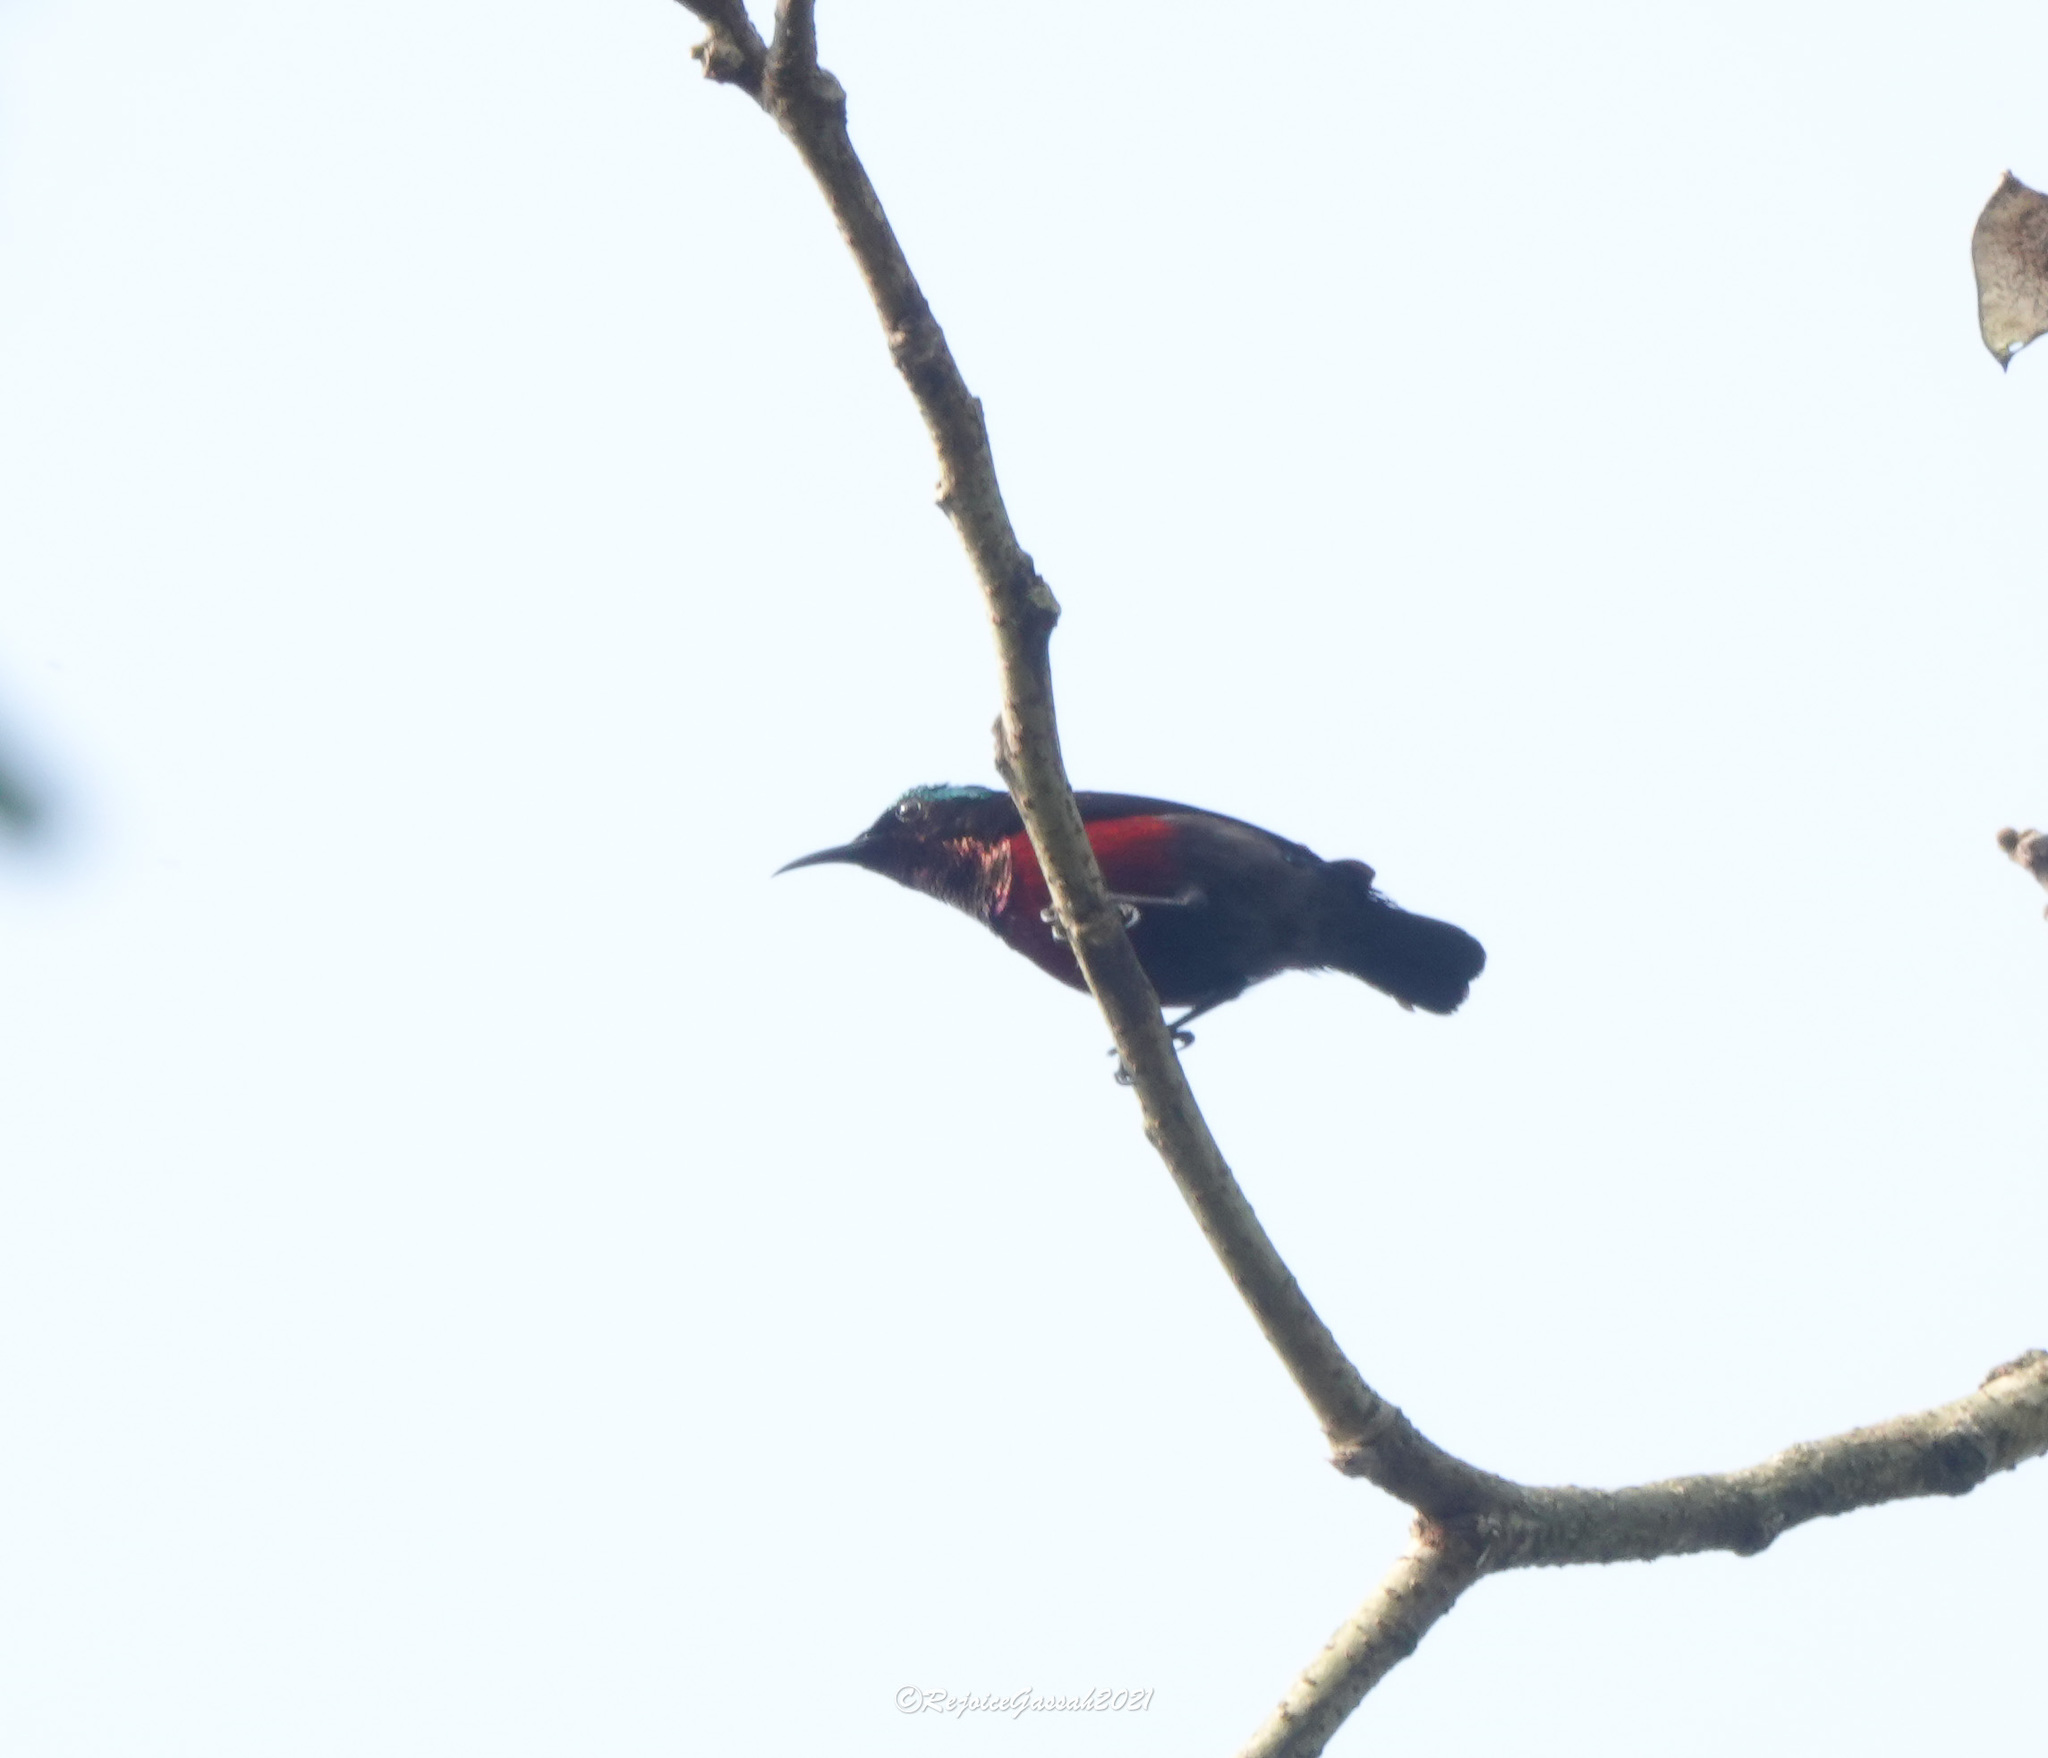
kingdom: Animalia
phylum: Chordata
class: Aves
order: Passeriformes
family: Nectariniidae
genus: Leptocoma
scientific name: Leptocoma brasiliana
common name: Van hasselt's sunbird
